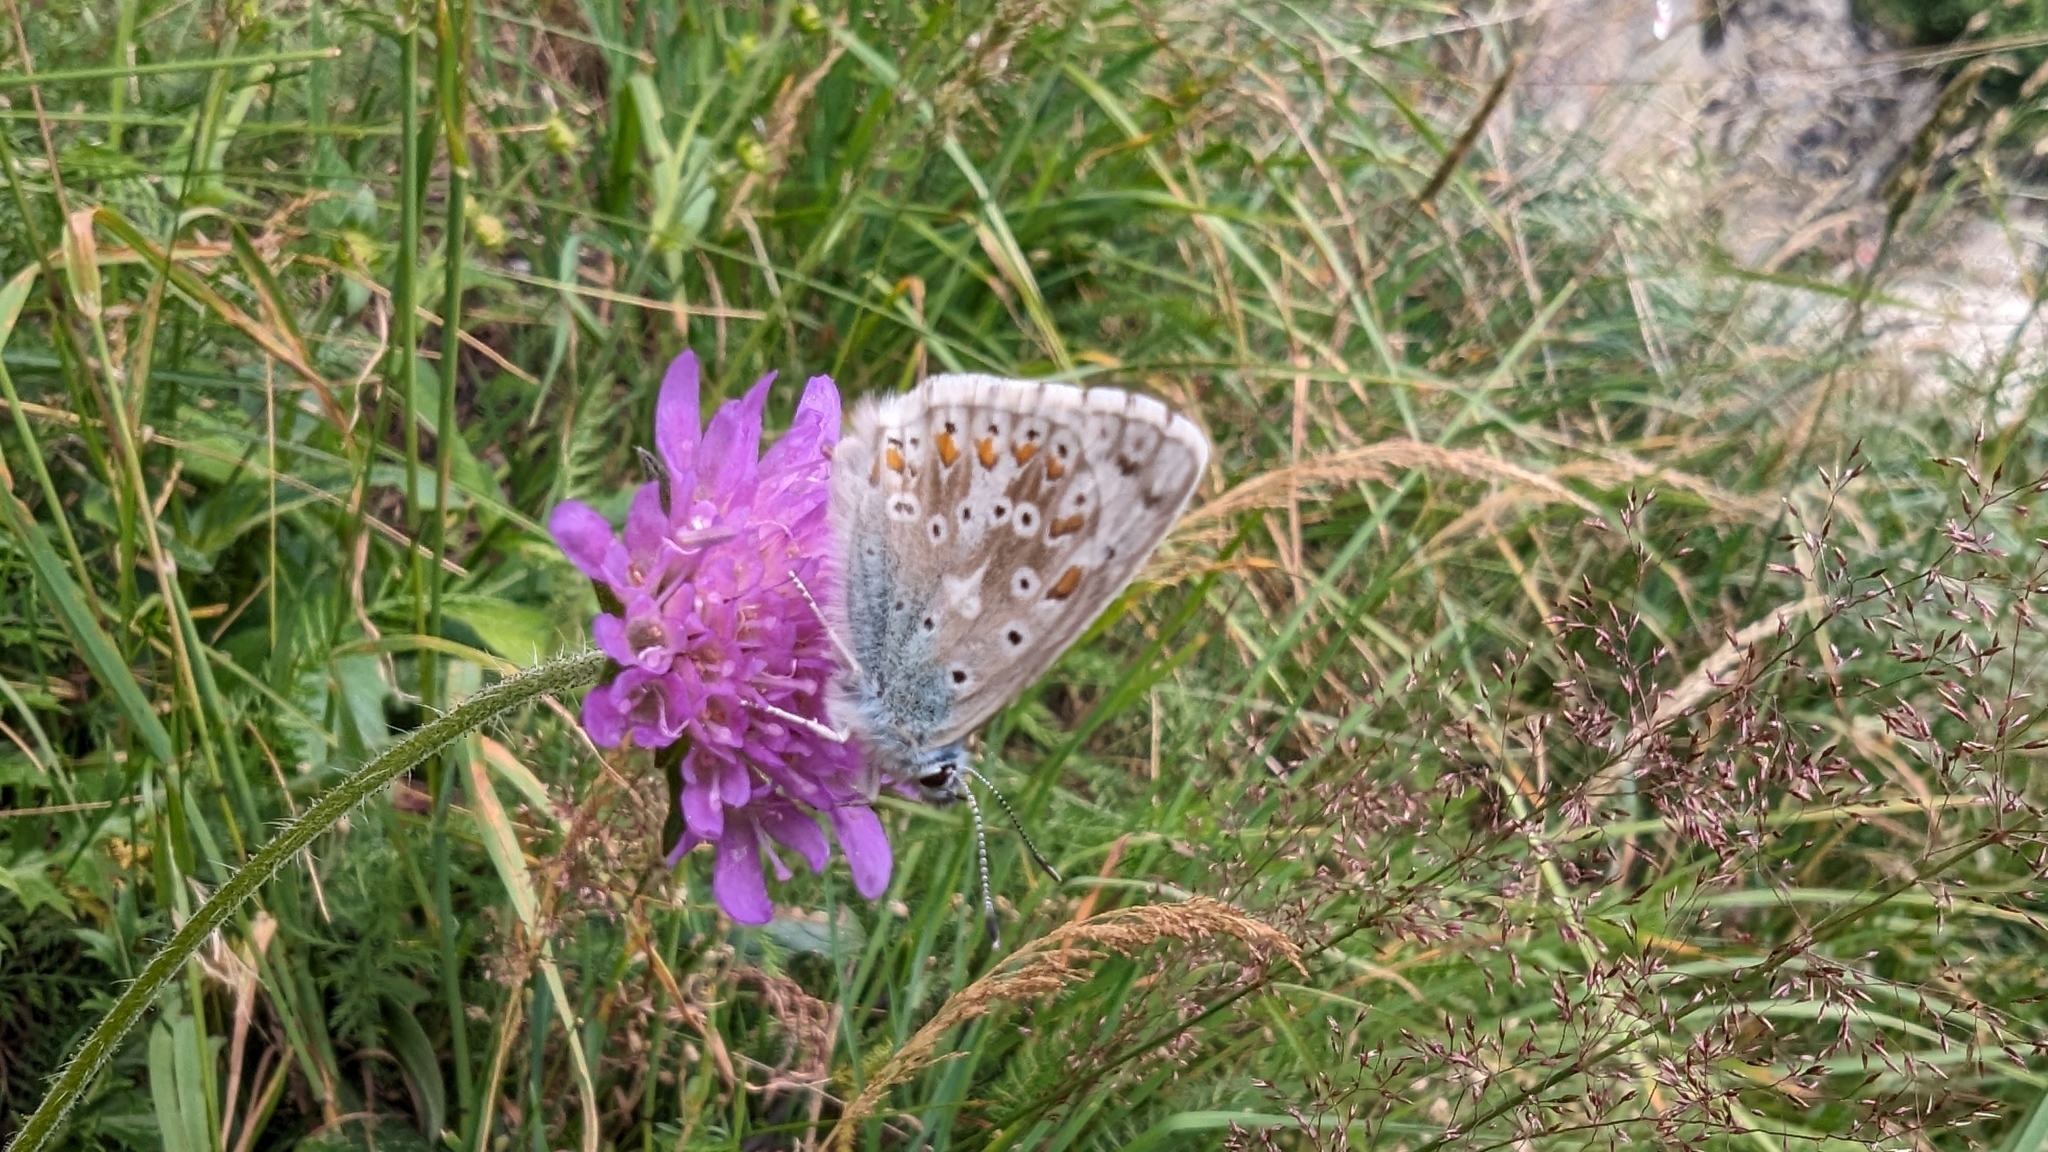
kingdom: Animalia
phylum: Arthropoda
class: Insecta
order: Lepidoptera
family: Lycaenidae
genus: Lysandra
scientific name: Lysandra coridon
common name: Chalkhill blue
